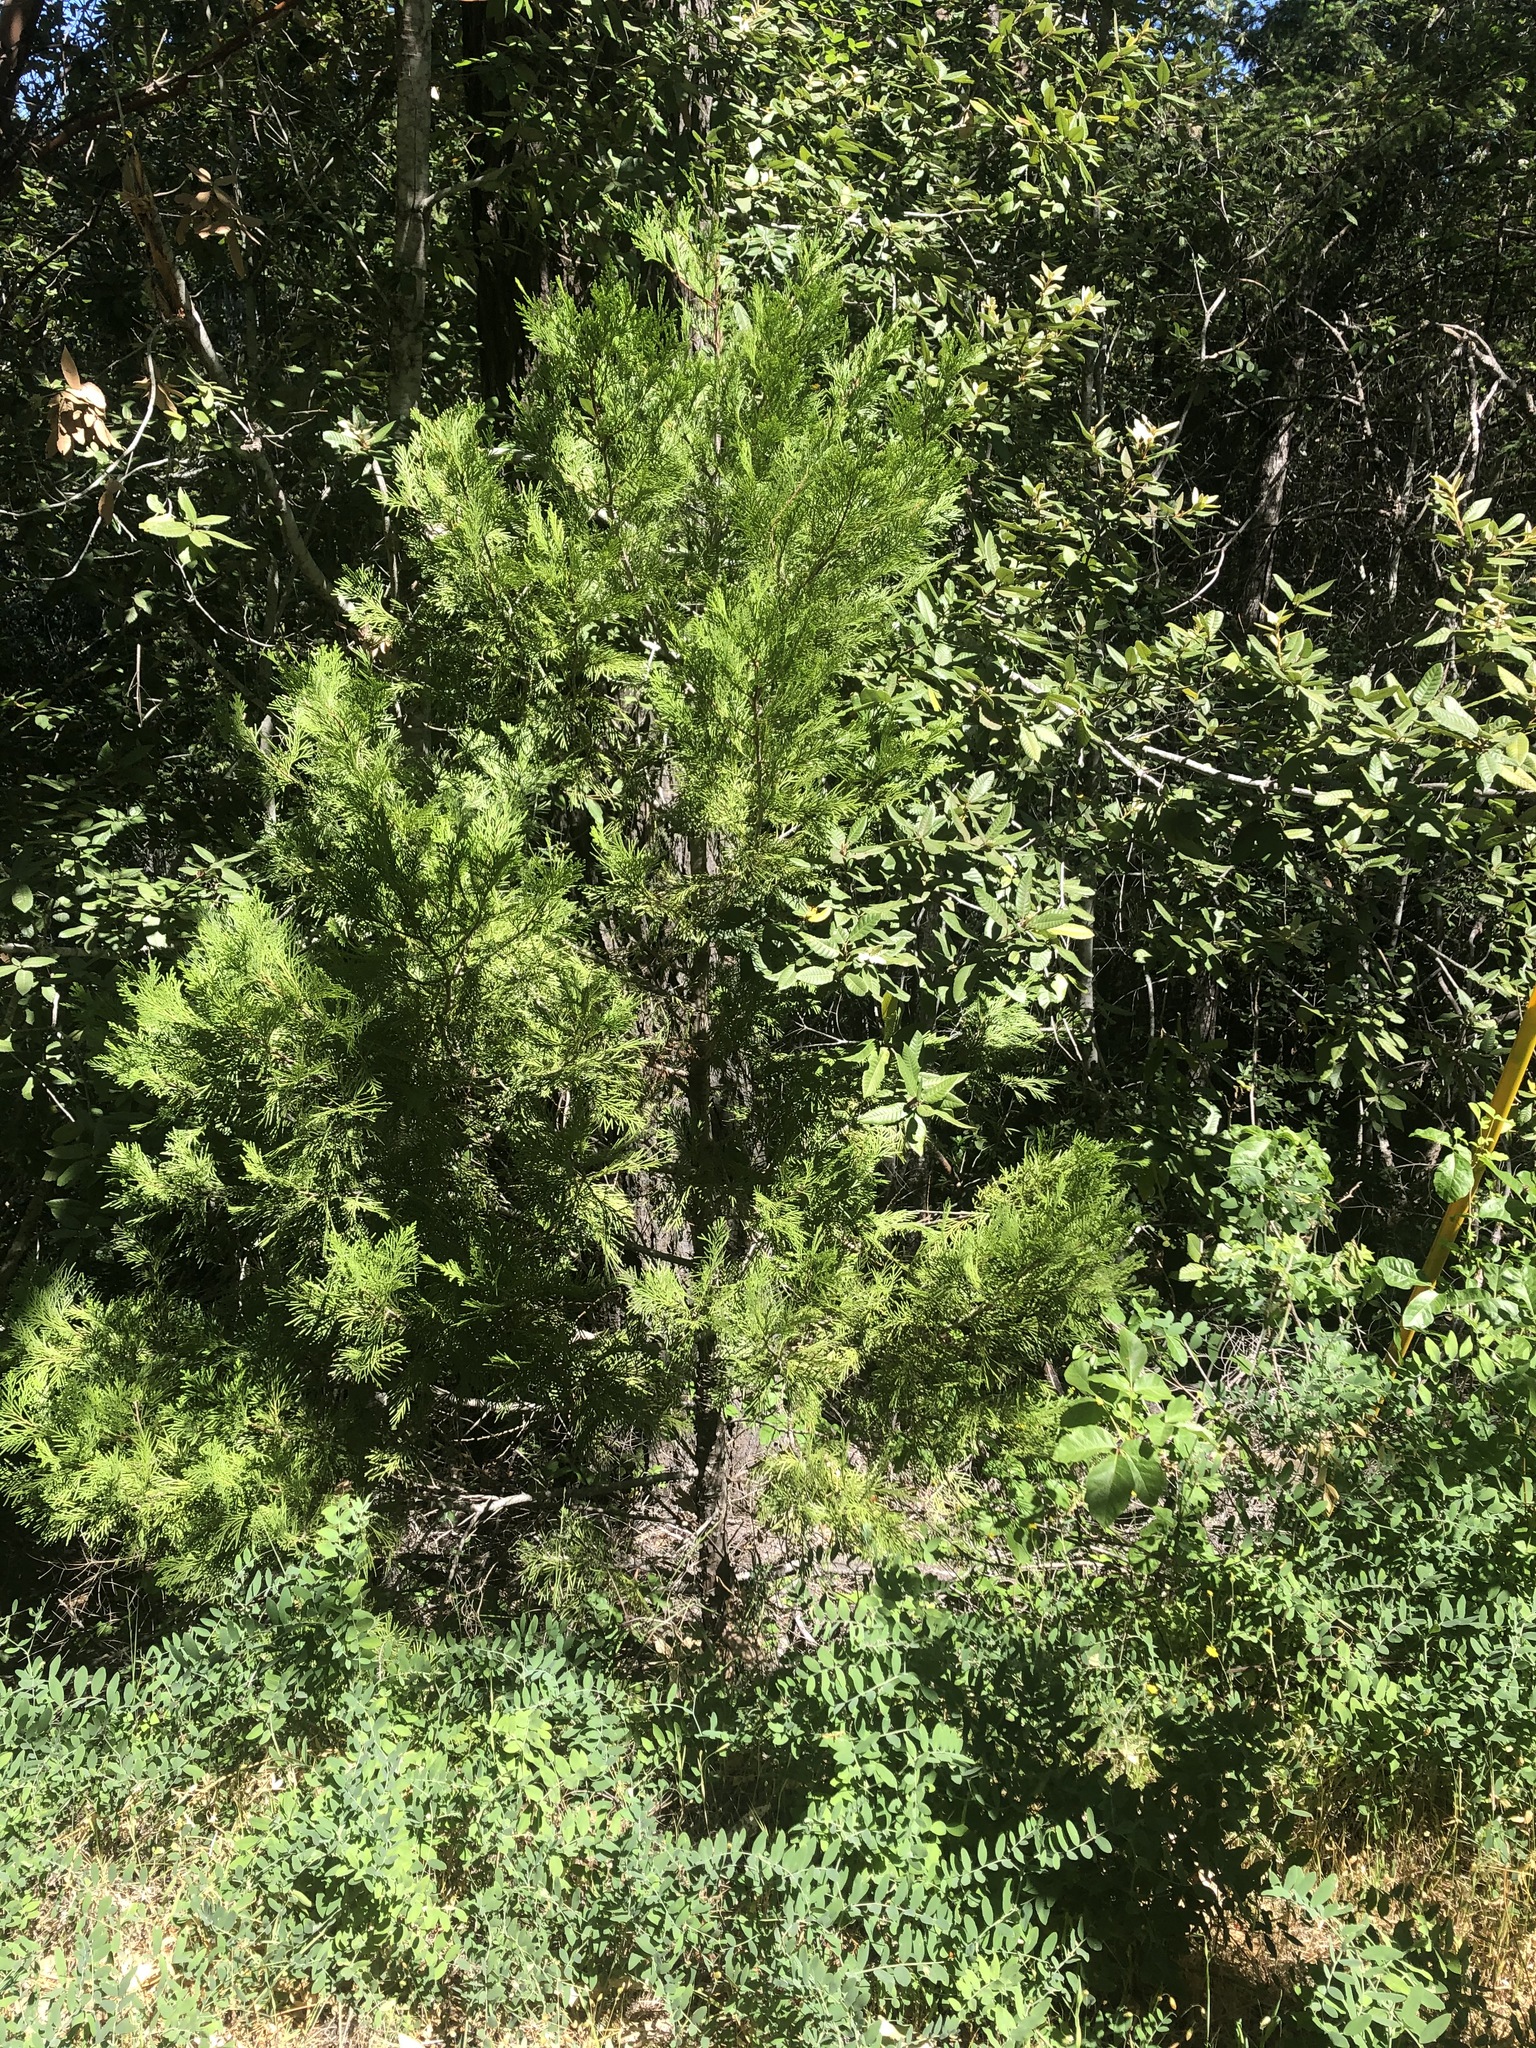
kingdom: Plantae
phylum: Tracheophyta
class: Pinopsida
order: Pinales
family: Cupressaceae
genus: Calocedrus
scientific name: Calocedrus decurrens
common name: Californian incense-cedar
